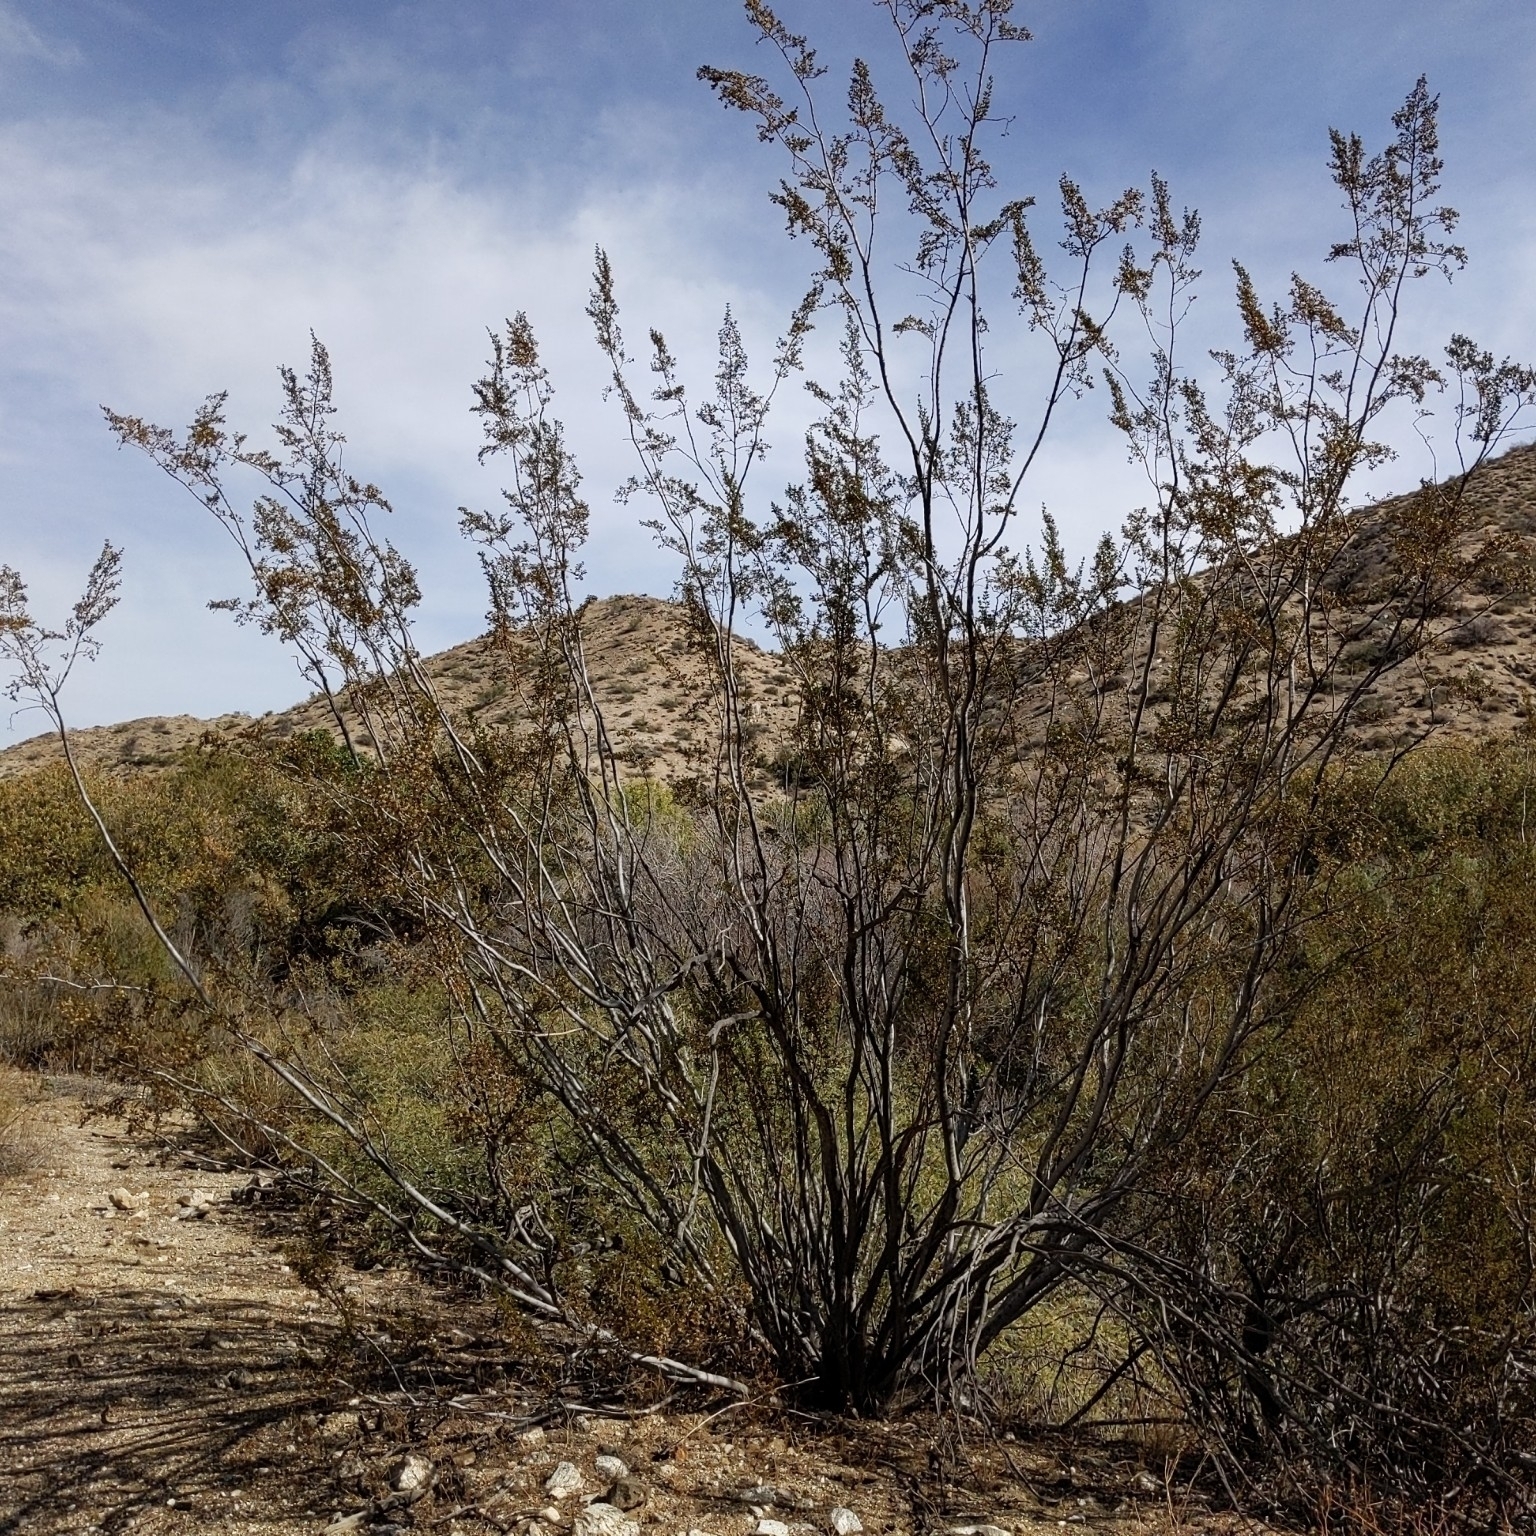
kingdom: Plantae
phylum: Tracheophyta
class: Magnoliopsida
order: Zygophyllales
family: Zygophyllaceae
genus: Larrea
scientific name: Larrea tridentata
